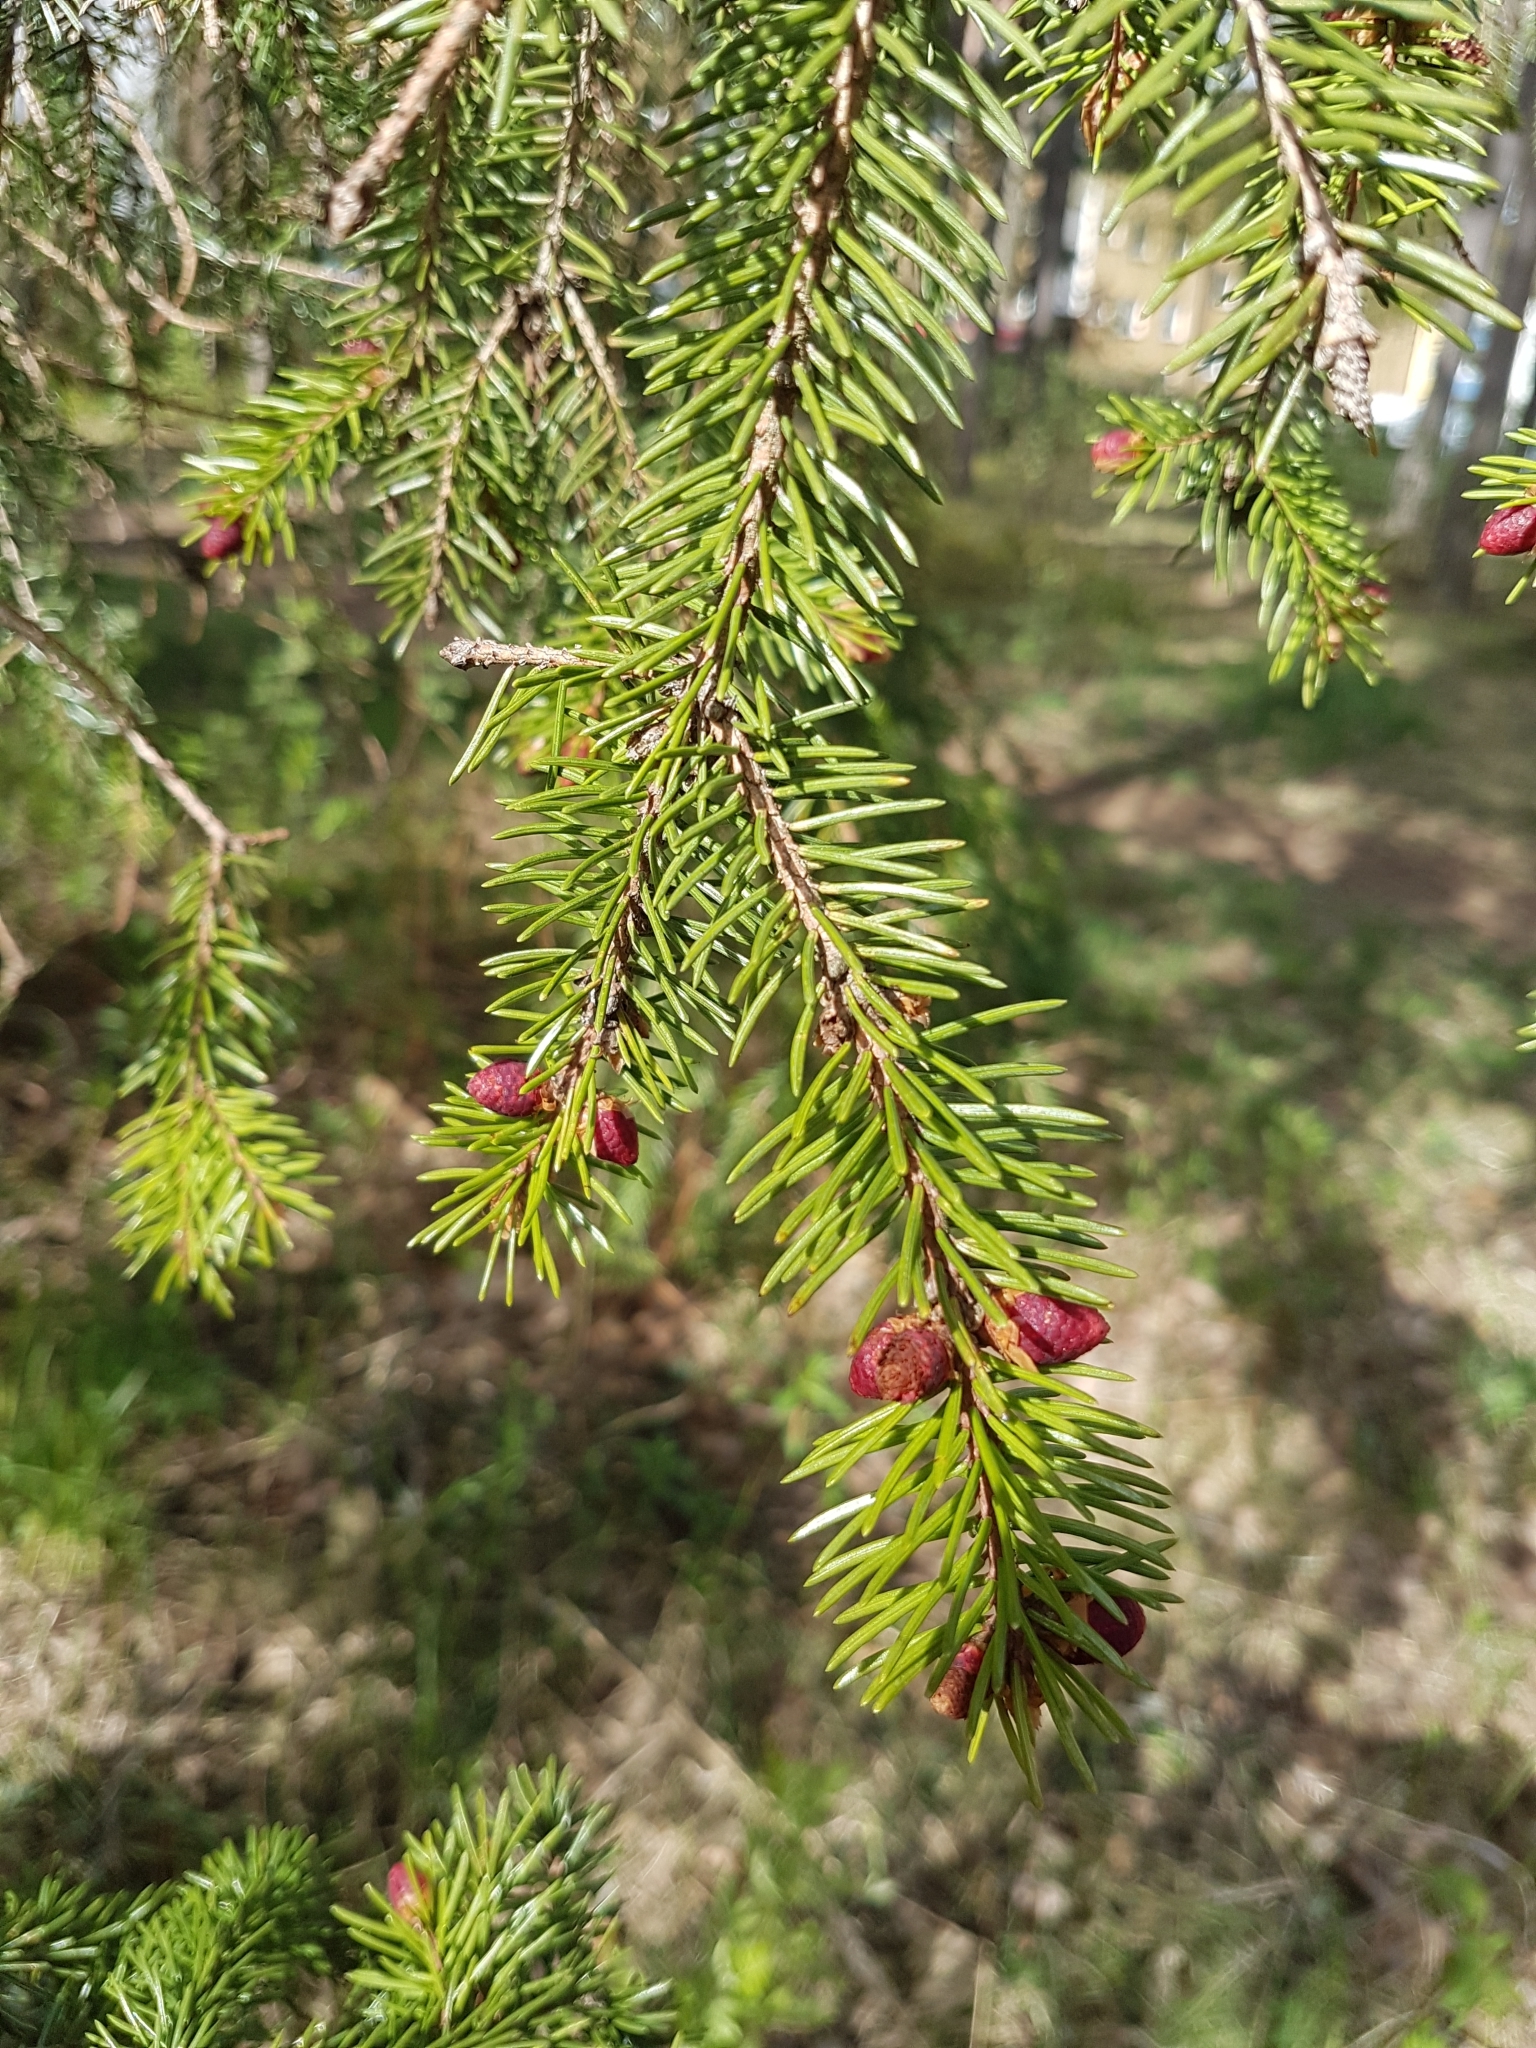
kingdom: Plantae
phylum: Tracheophyta
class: Pinopsida
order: Pinales
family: Pinaceae
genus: Picea
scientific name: Picea abies
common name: Norway spruce
